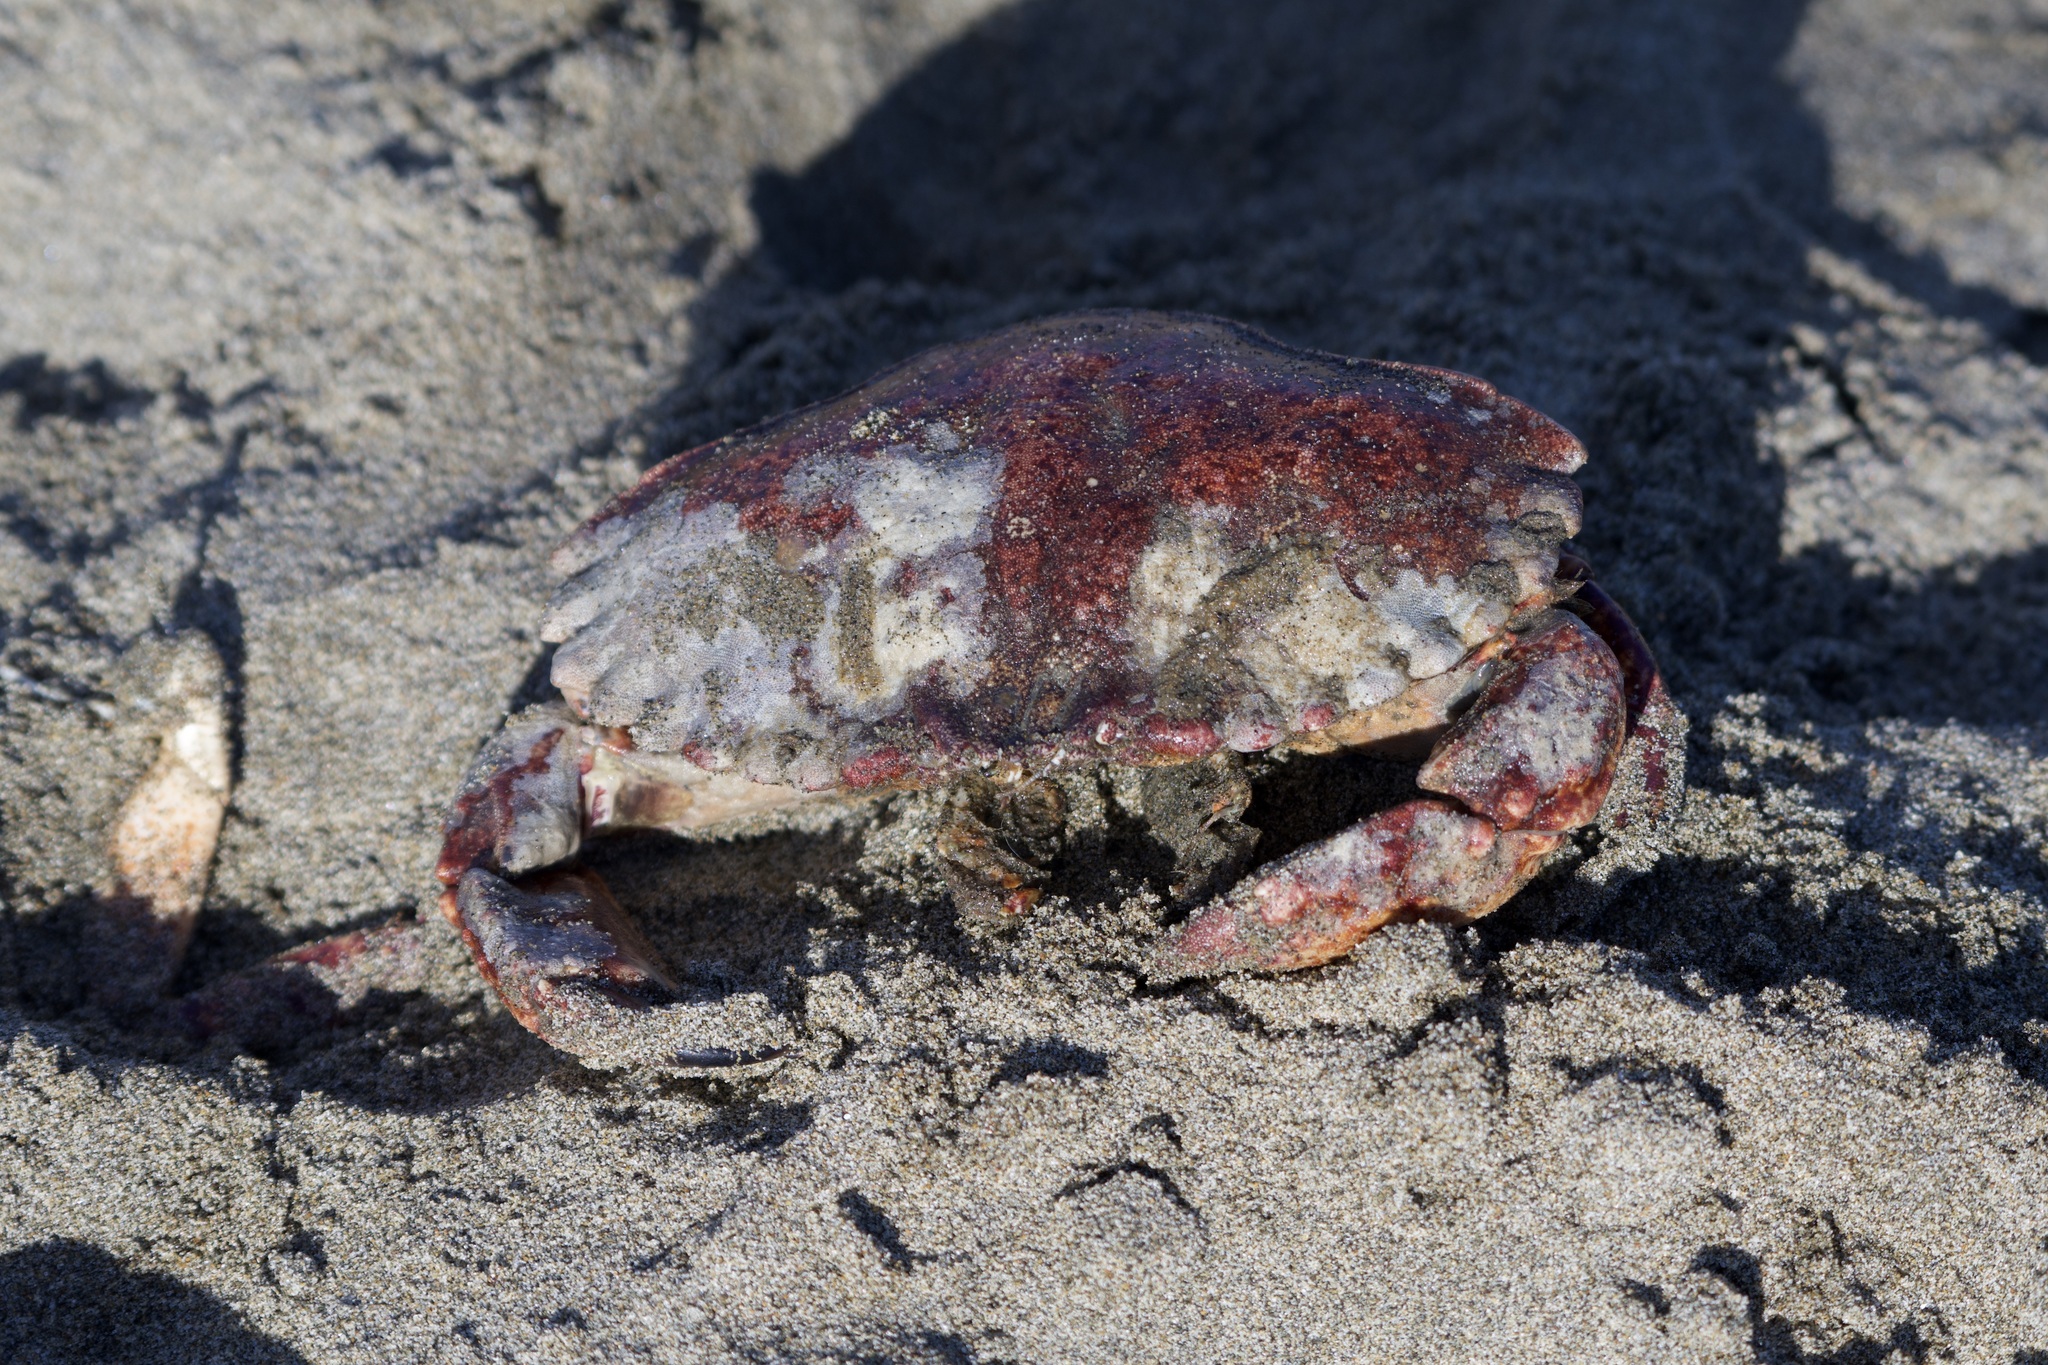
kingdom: Animalia
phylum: Arthropoda
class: Malacostraca
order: Decapoda
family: Cancridae
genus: Cancer
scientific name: Cancer productus
